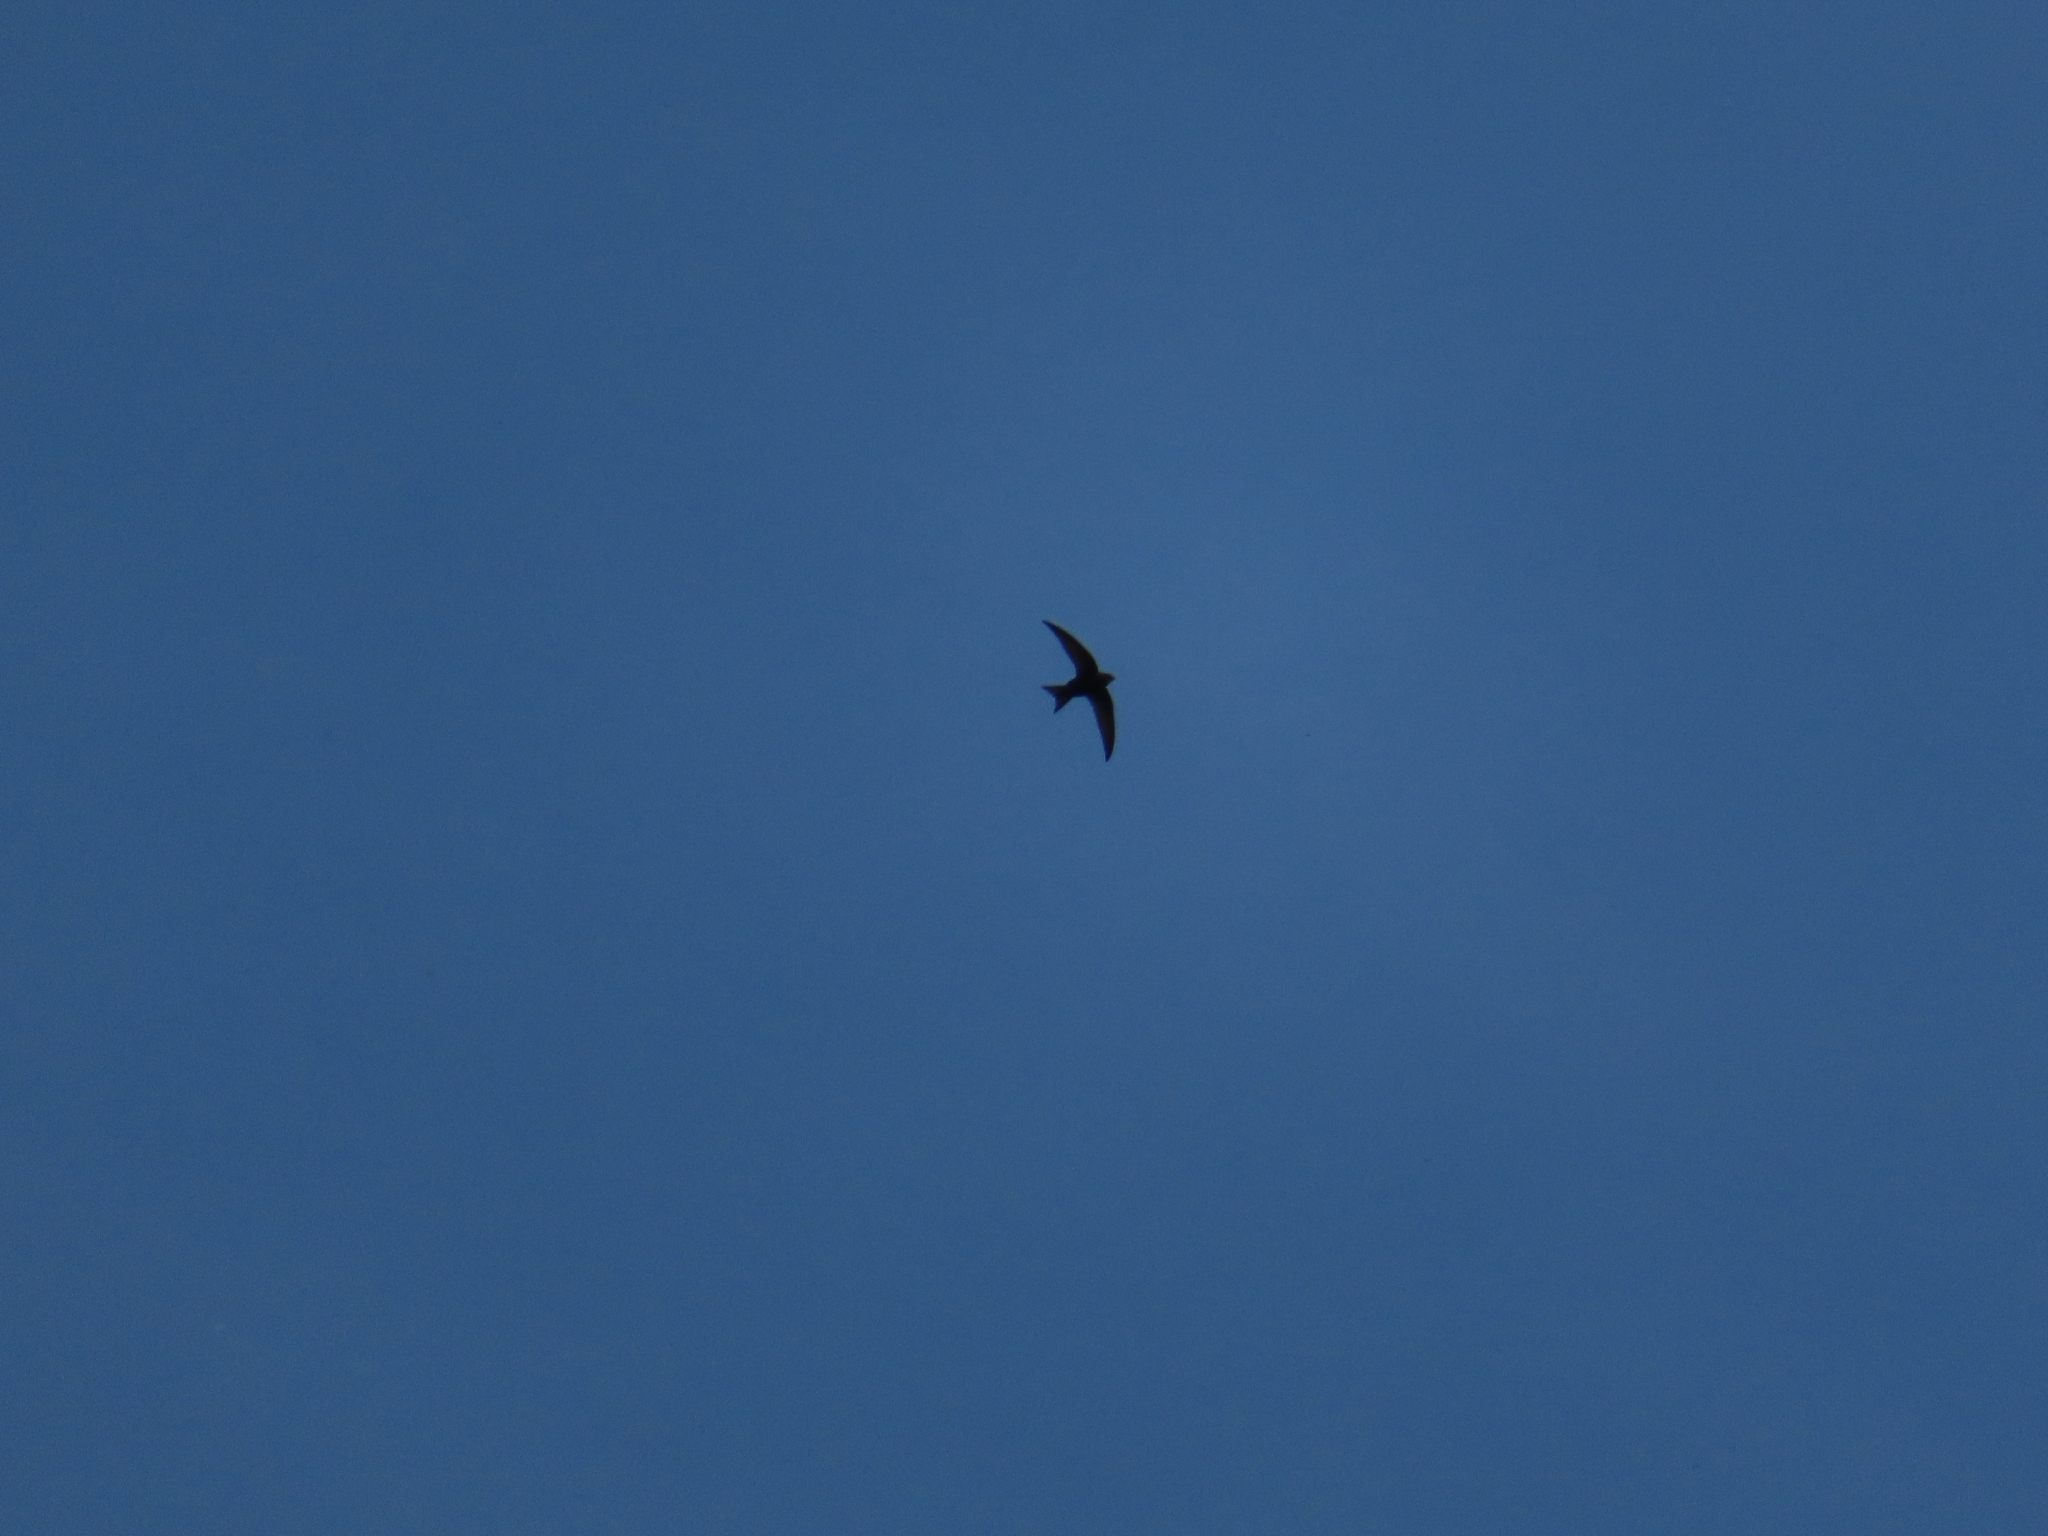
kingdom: Animalia
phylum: Chordata
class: Aves
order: Apodiformes
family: Apodidae
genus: Apus
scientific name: Apus apus
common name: Common swift
